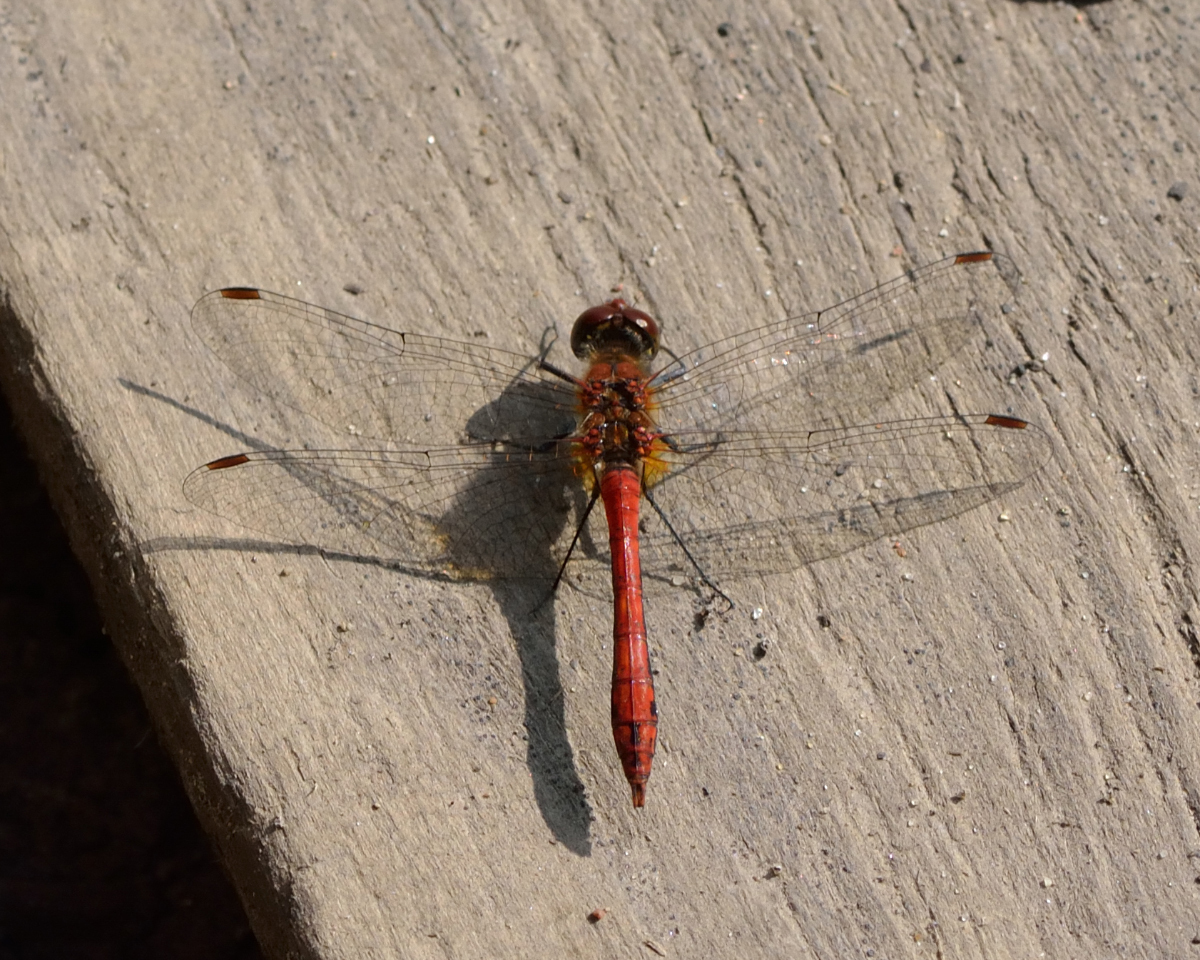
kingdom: Animalia
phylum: Arthropoda
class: Insecta
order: Odonata
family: Libellulidae
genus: Sympetrum
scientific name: Sympetrum sanguineum
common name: Ruddy darter
